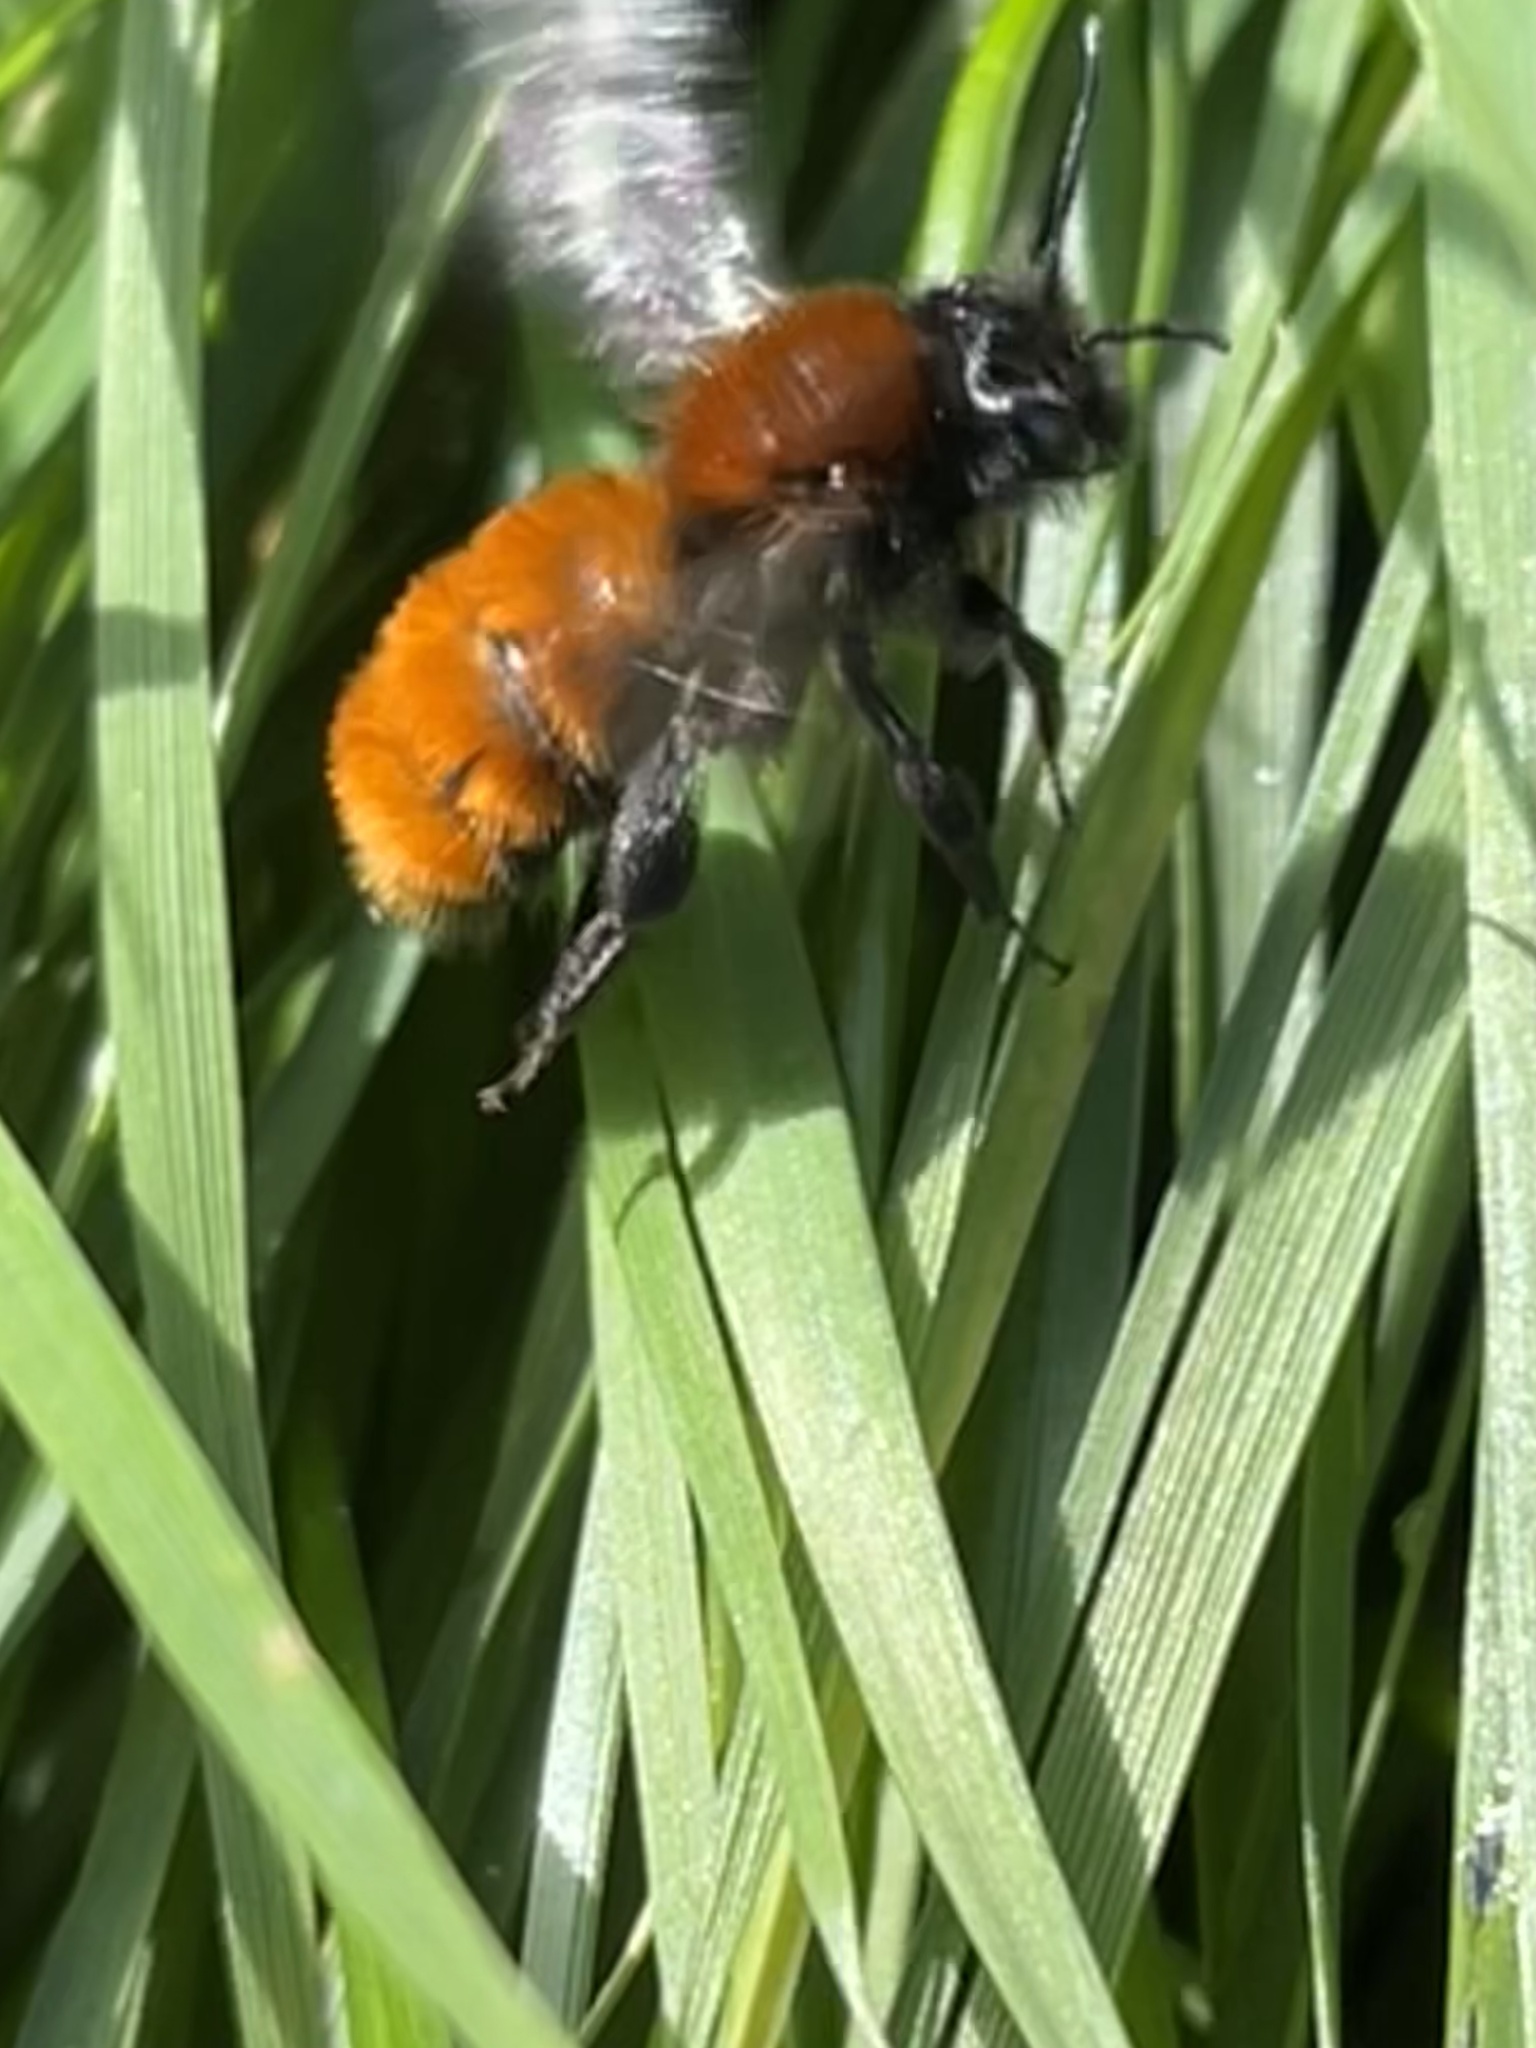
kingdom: Animalia
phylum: Arthropoda
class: Insecta
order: Hymenoptera
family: Andrenidae
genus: Andrena
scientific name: Andrena fulva
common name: Tawny mining bee
